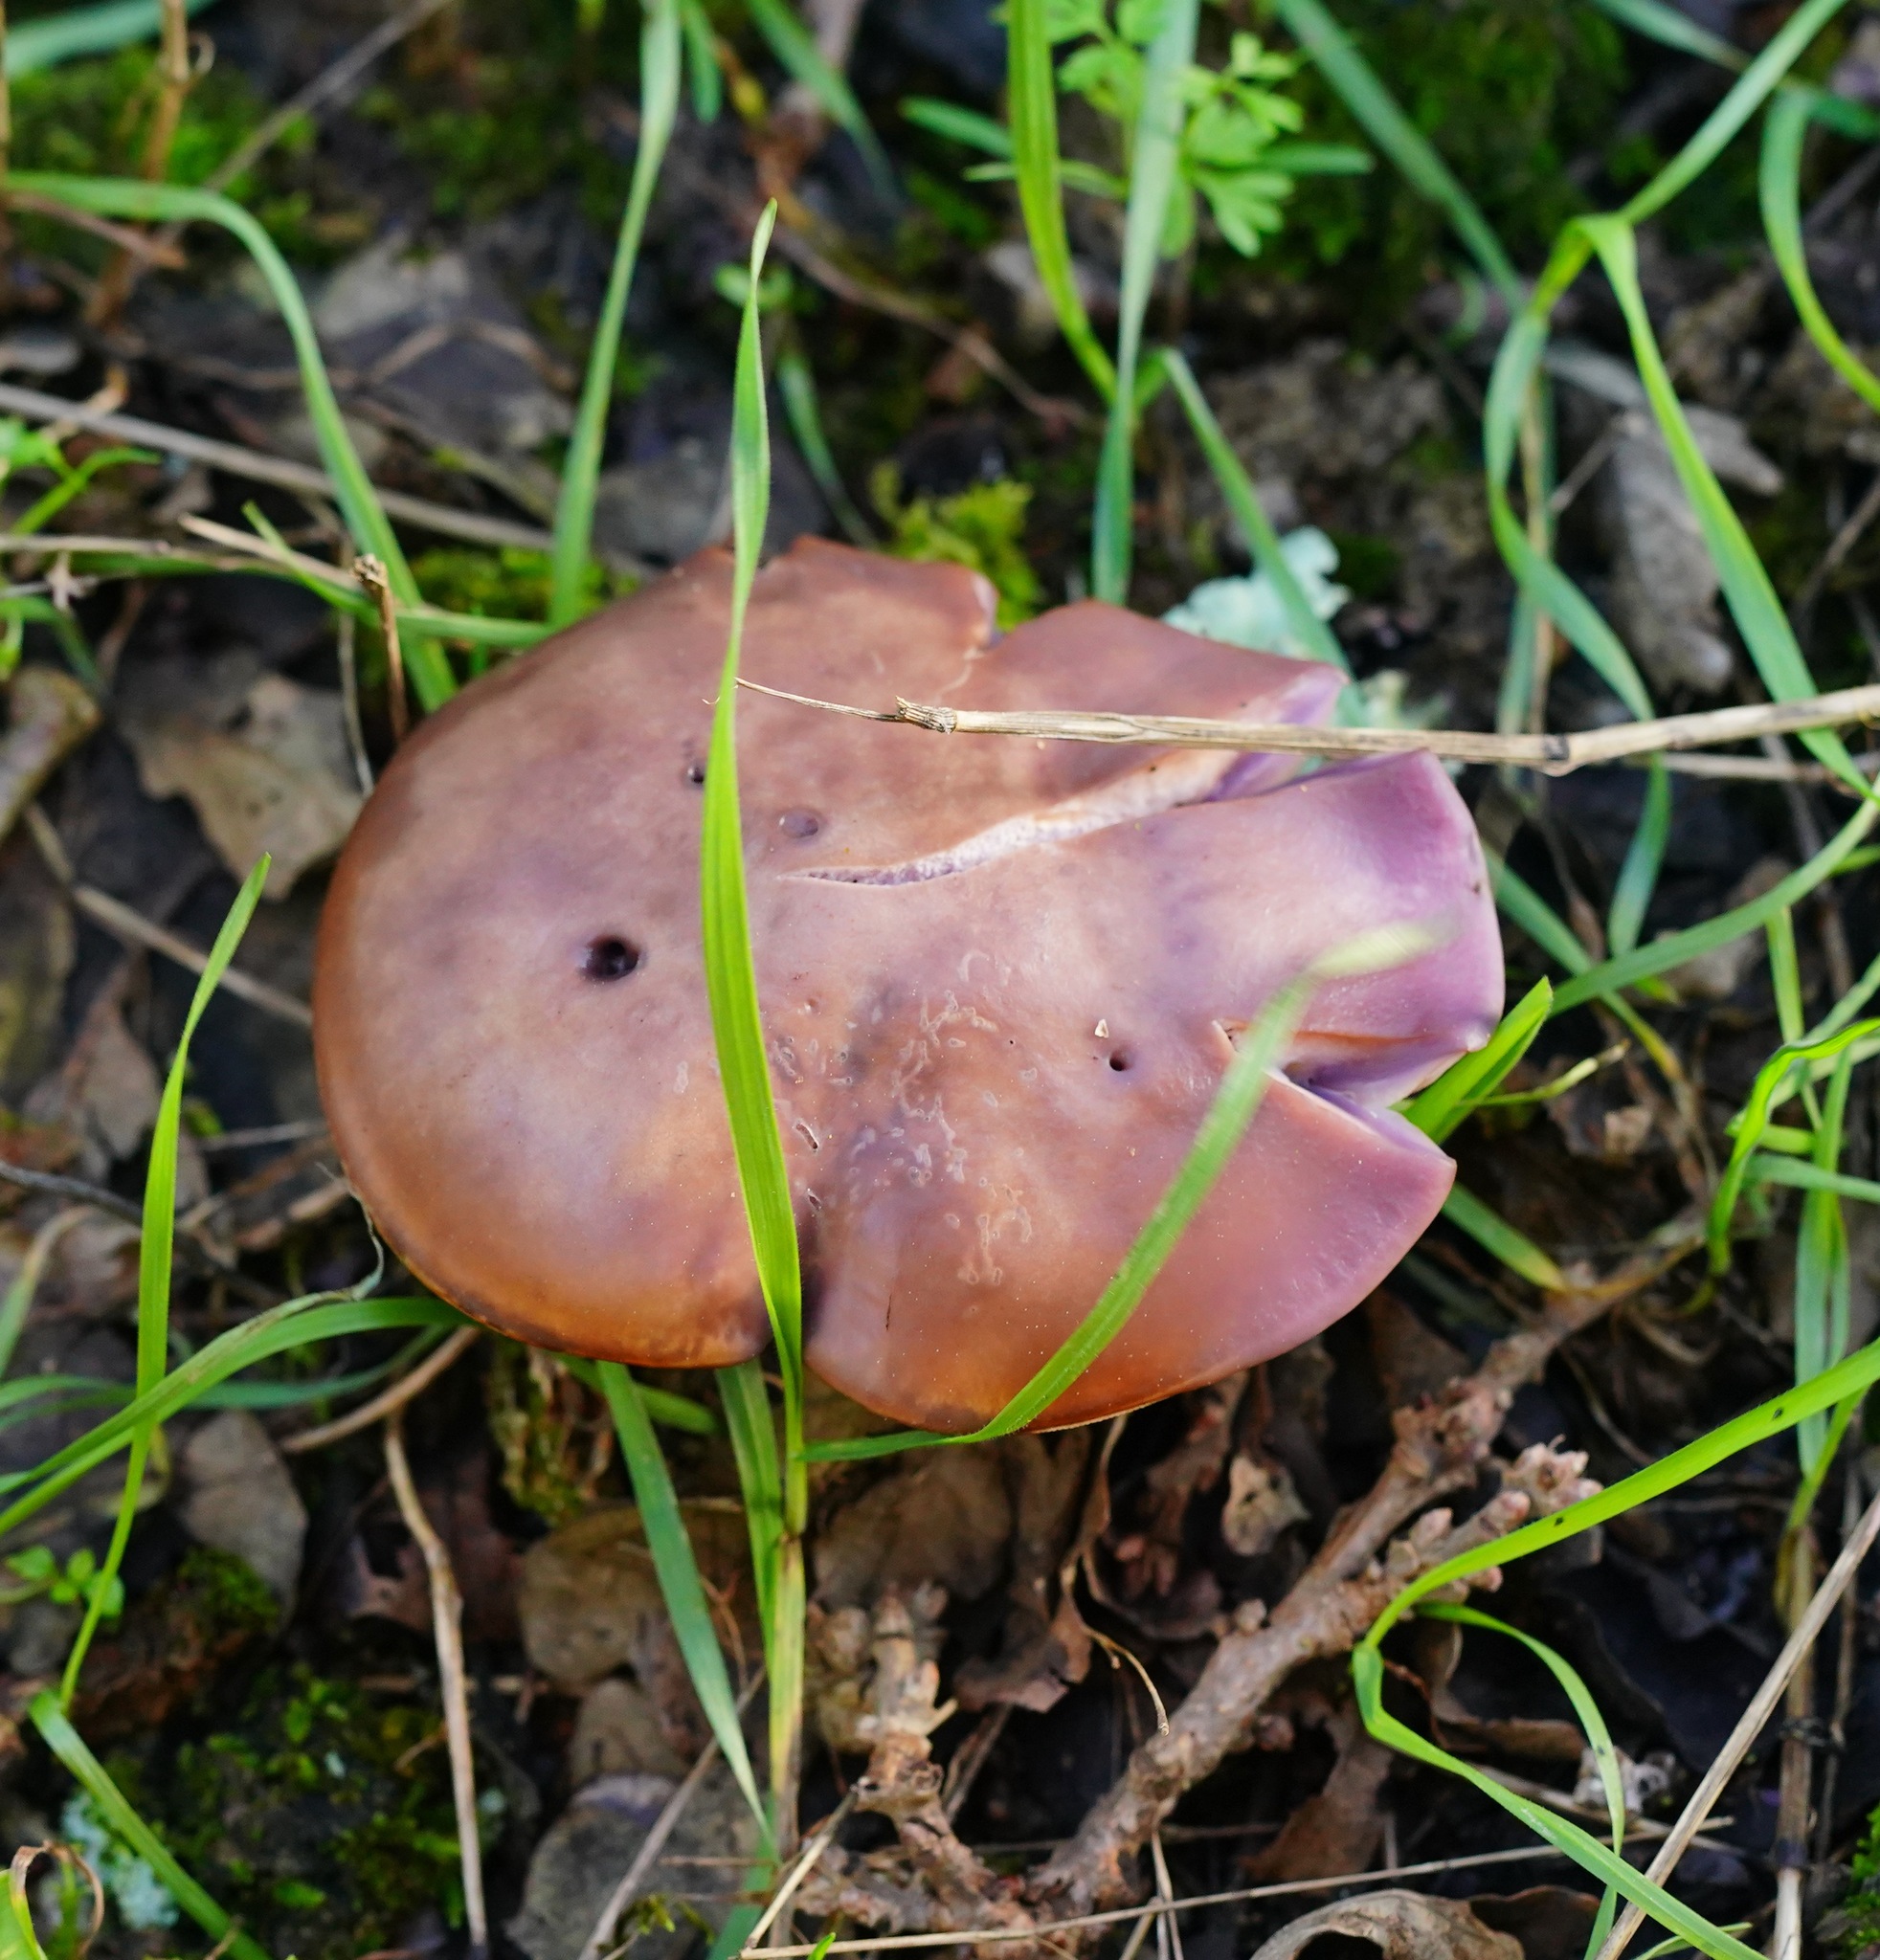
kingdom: Fungi
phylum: Basidiomycota
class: Agaricomycetes
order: Agaricales
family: Tricholomataceae
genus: Collybia
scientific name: Collybia
